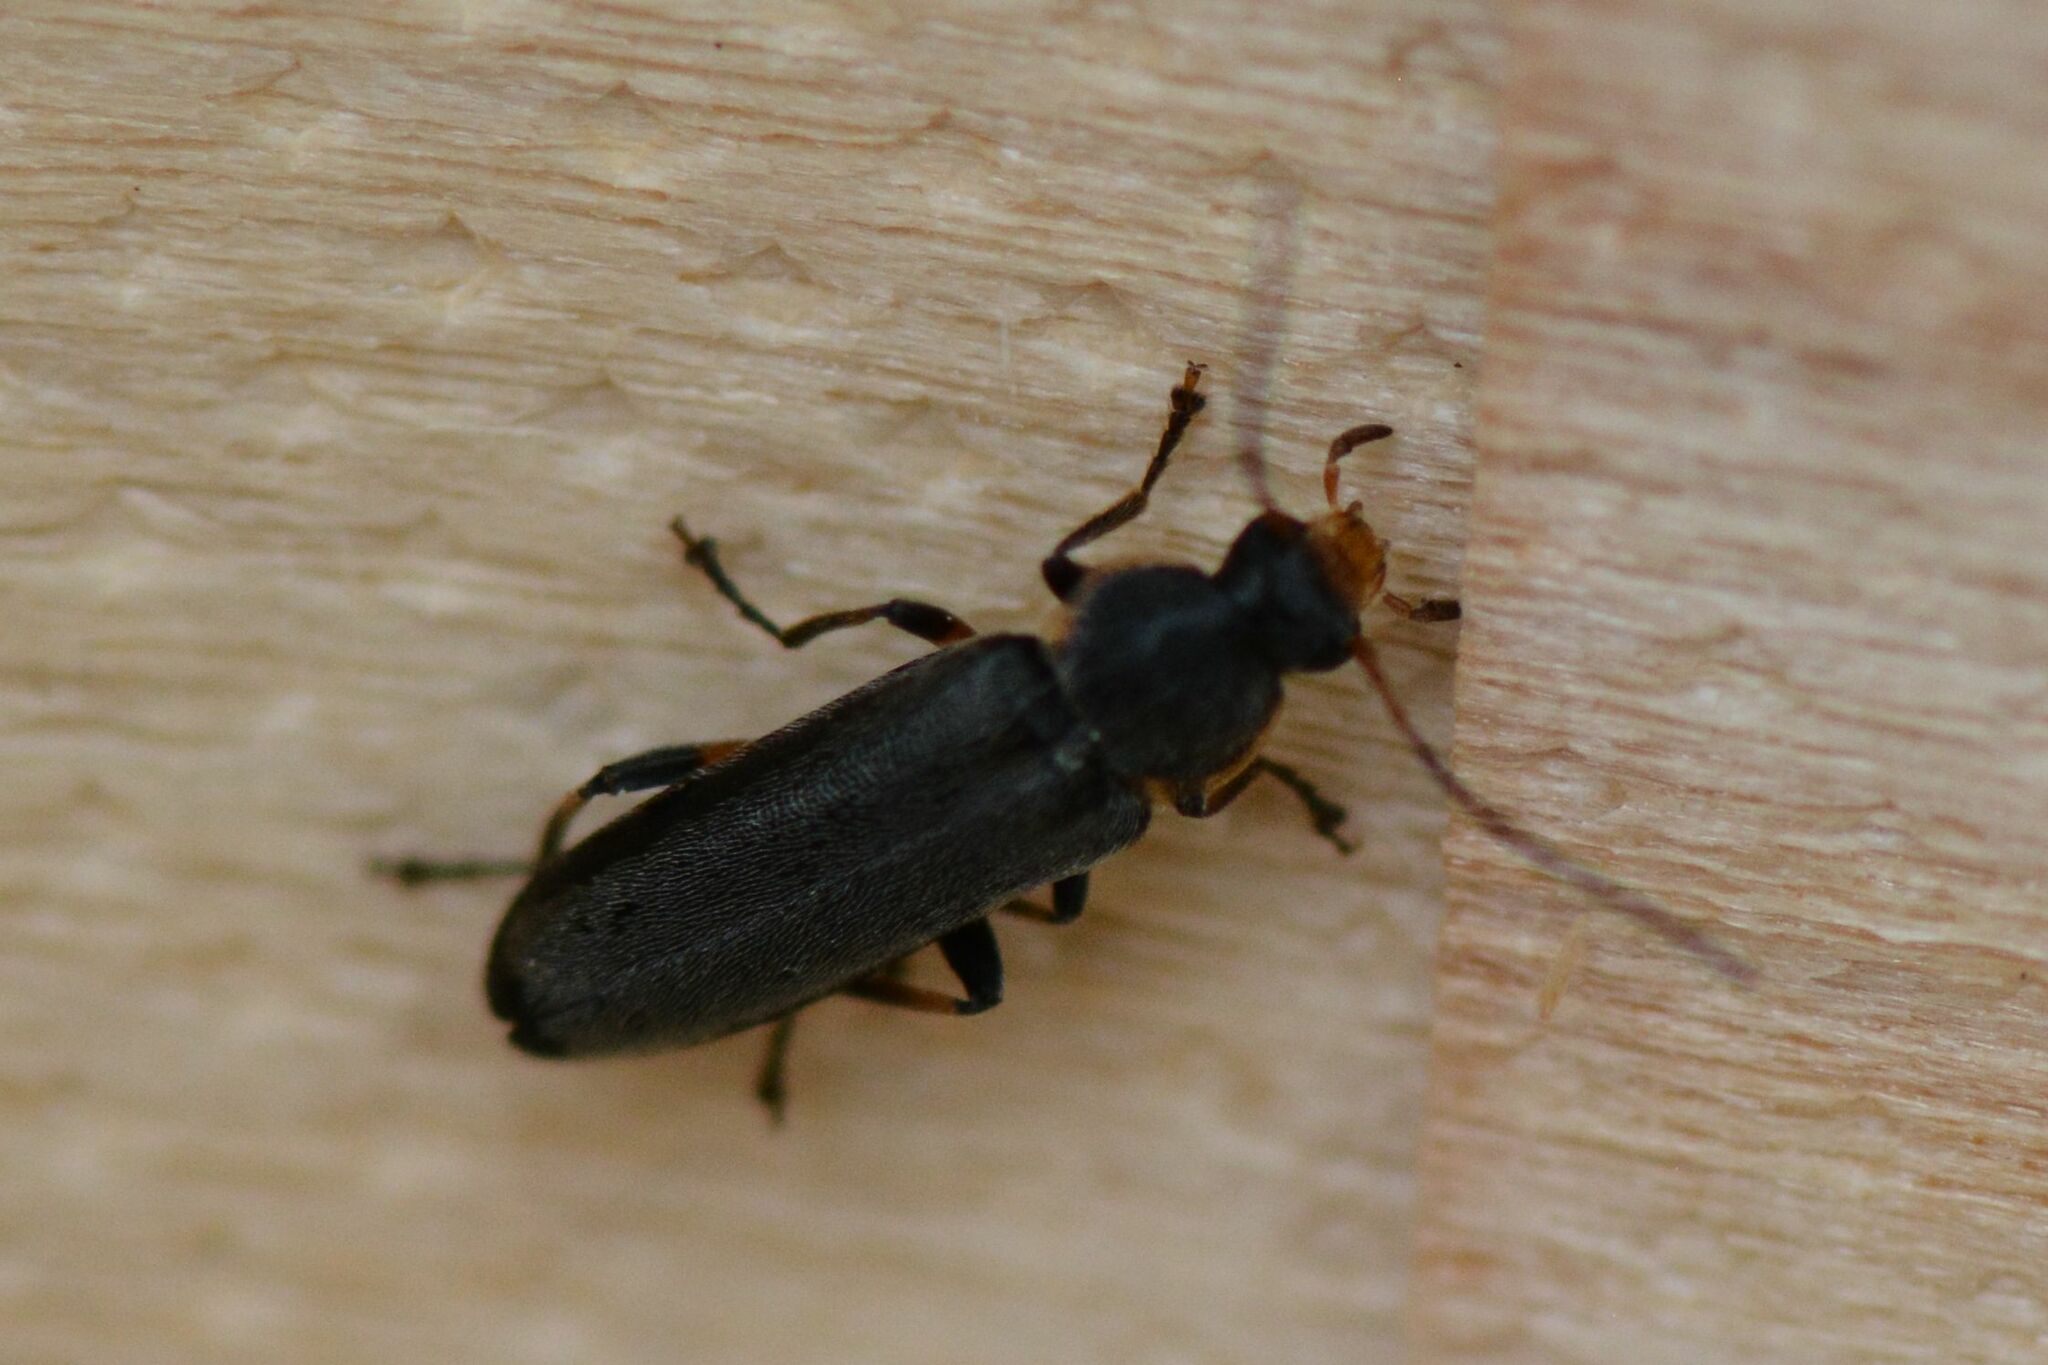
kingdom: Animalia
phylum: Arthropoda
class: Insecta
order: Coleoptera
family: Melandryidae
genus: Osphya
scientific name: Osphya bipunctata
